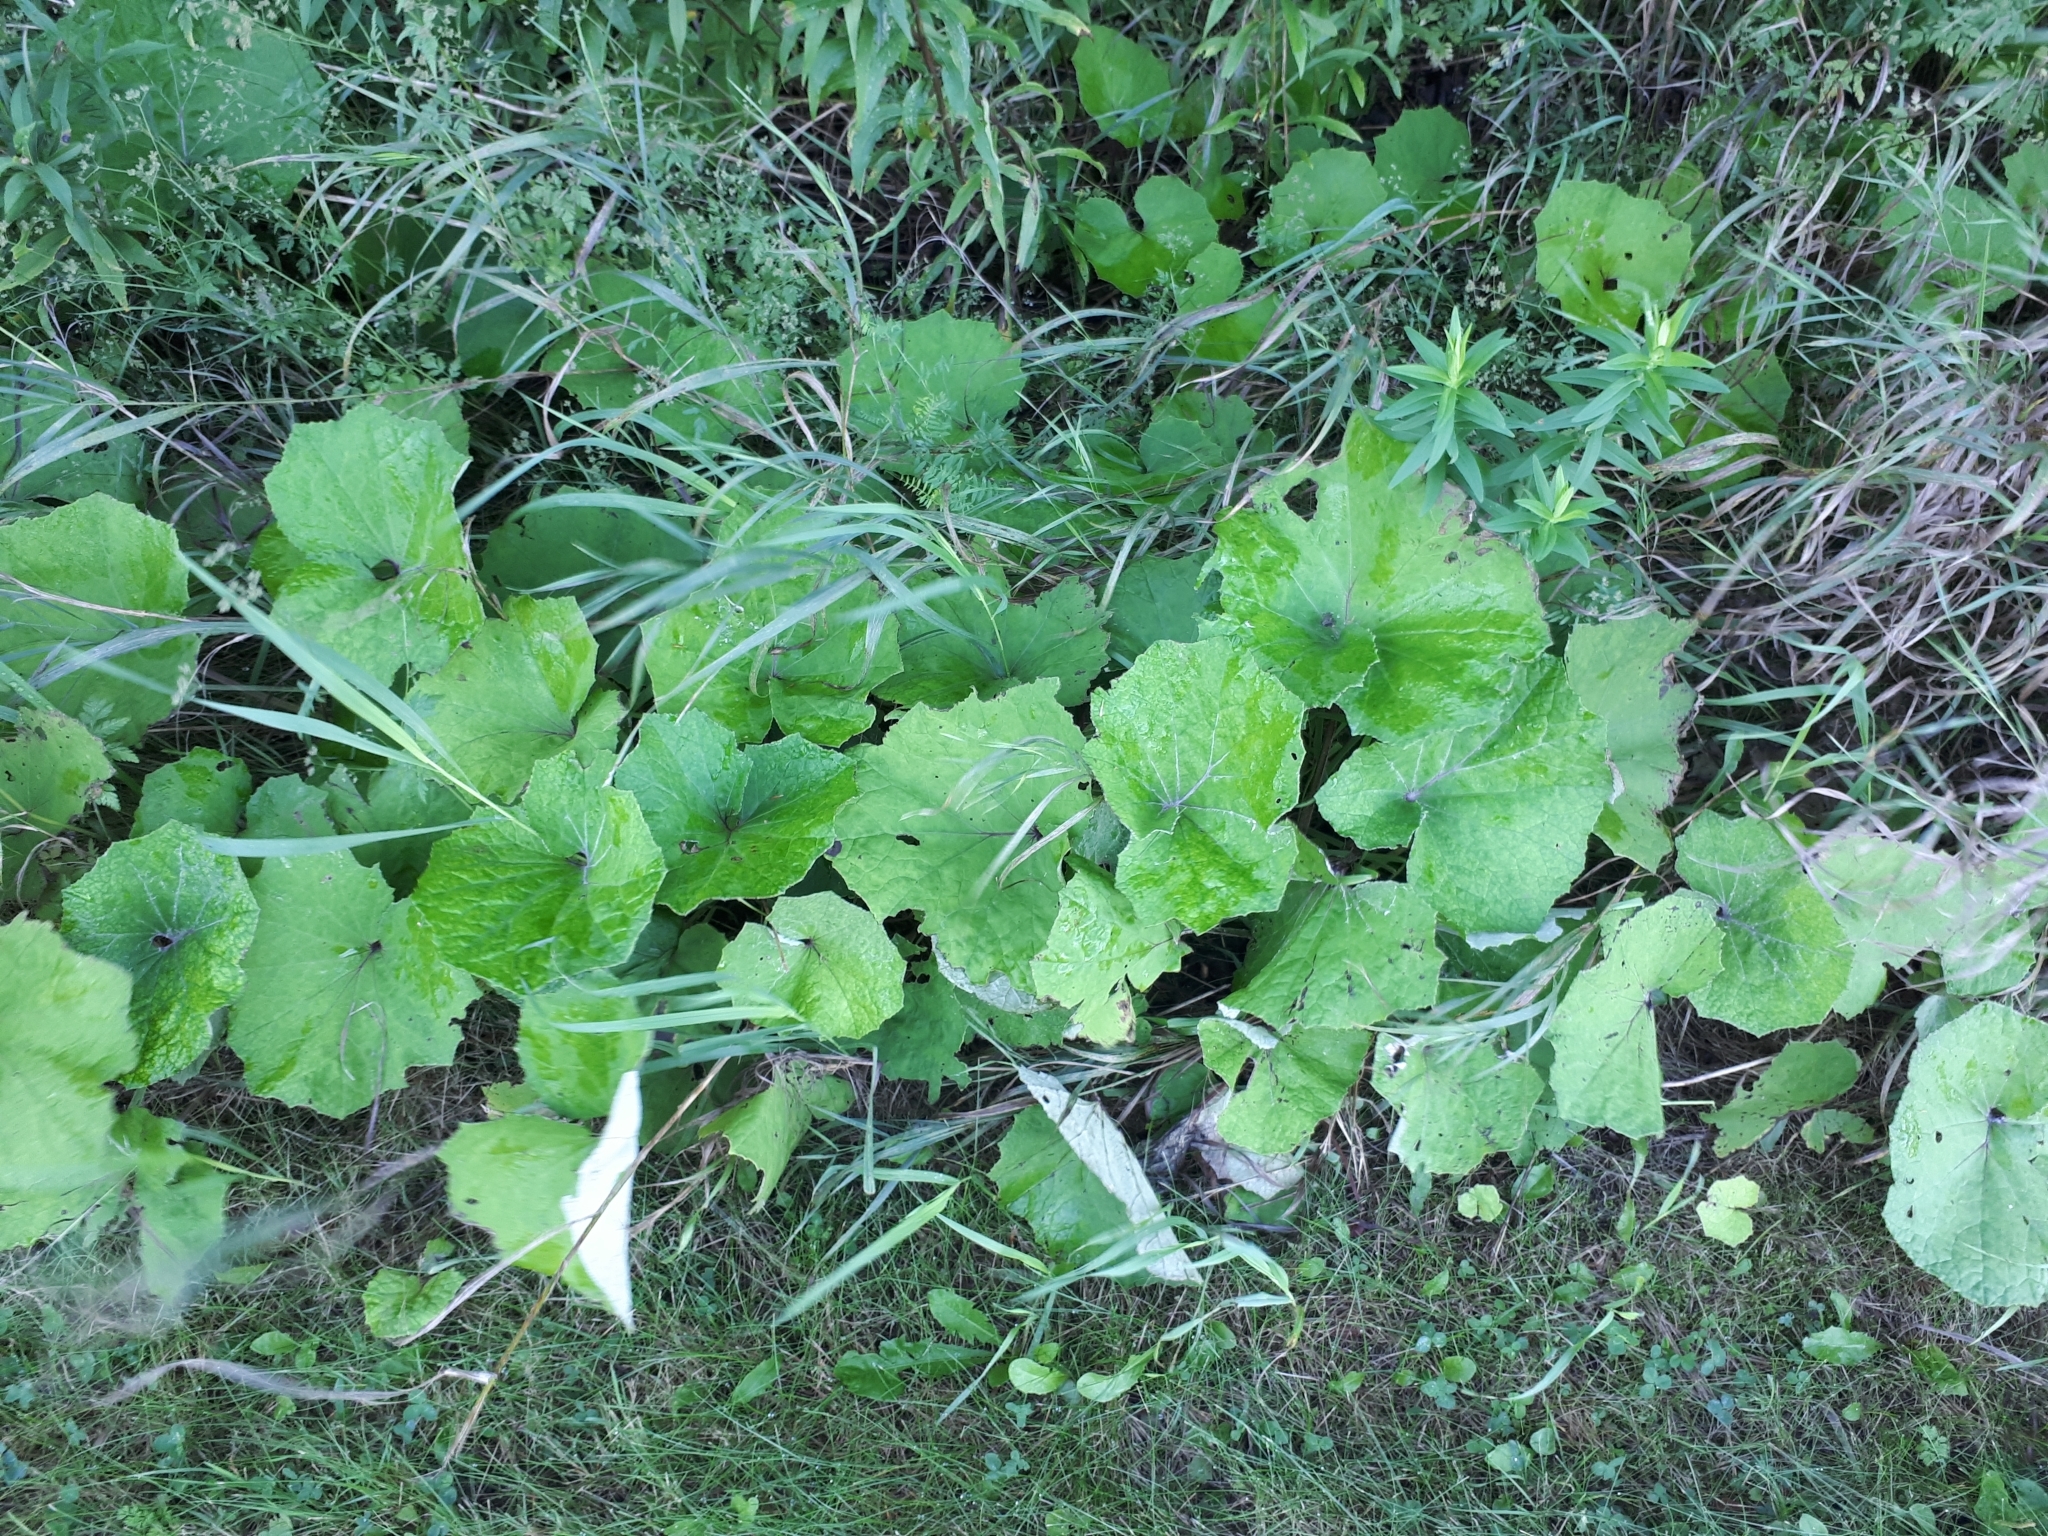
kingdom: Plantae
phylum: Tracheophyta
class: Magnoliopsida
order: Asterales
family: Asteraceae
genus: Tussilago
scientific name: Tussilago farfara
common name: Coltsfoot
